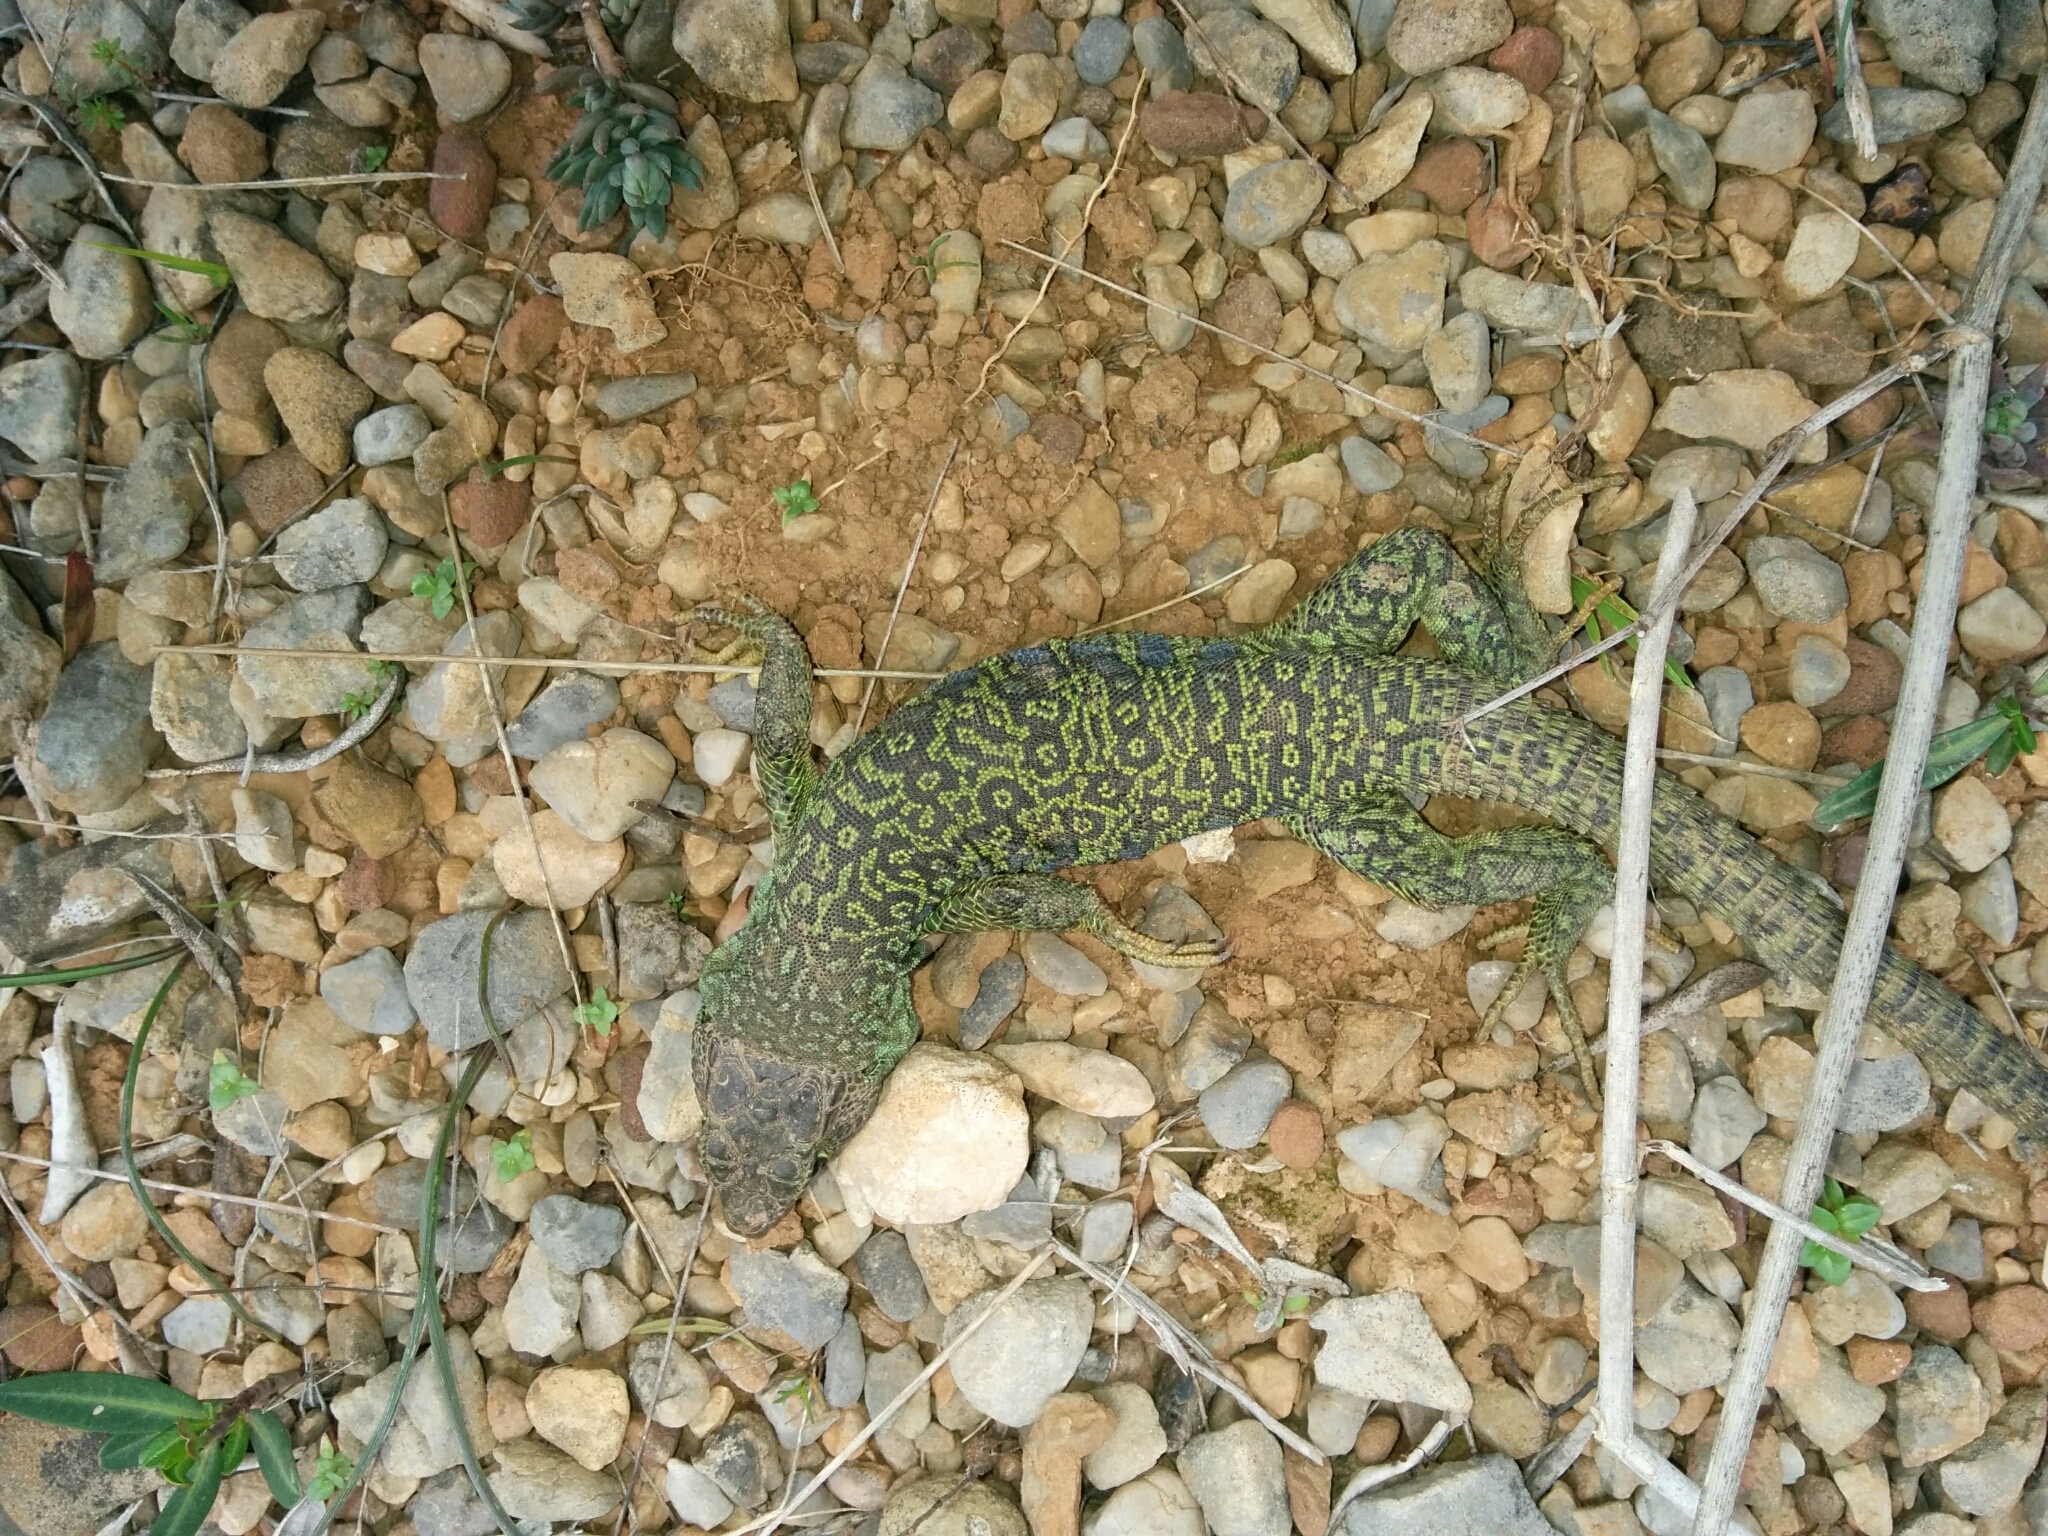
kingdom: Animalia
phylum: Chordata
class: Squamata
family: Lacertidae
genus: Timon
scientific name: Timon lepidus
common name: Ocellated lizard
